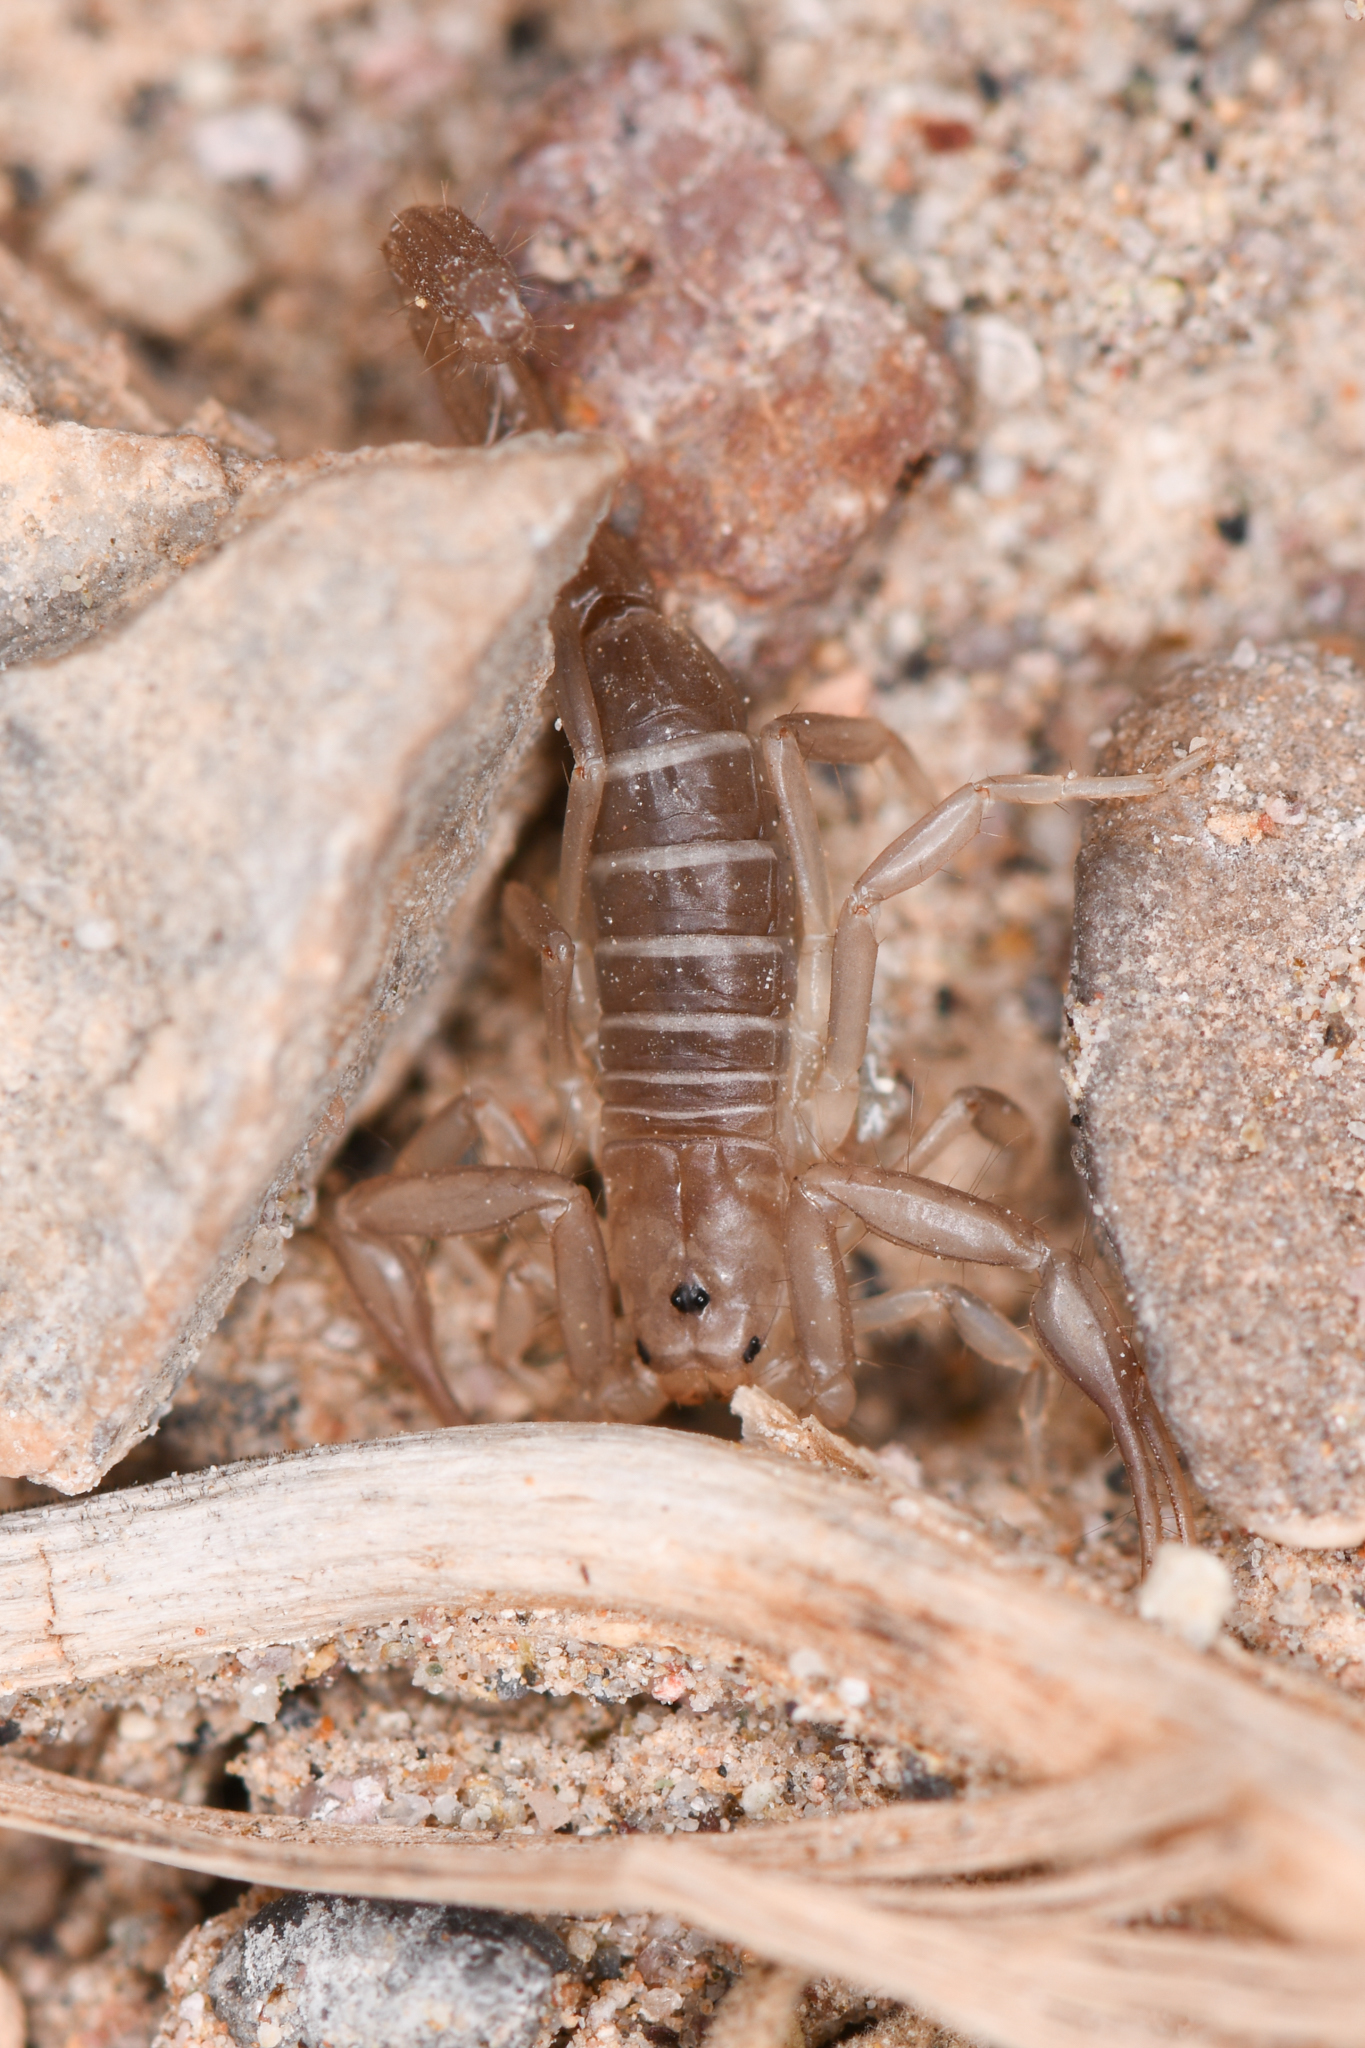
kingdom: Animalia
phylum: Arthropoda
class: Arachnida
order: Scorpiones
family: Vaejovidae
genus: Stahnkeus
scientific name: Stahnkeus deserticola
